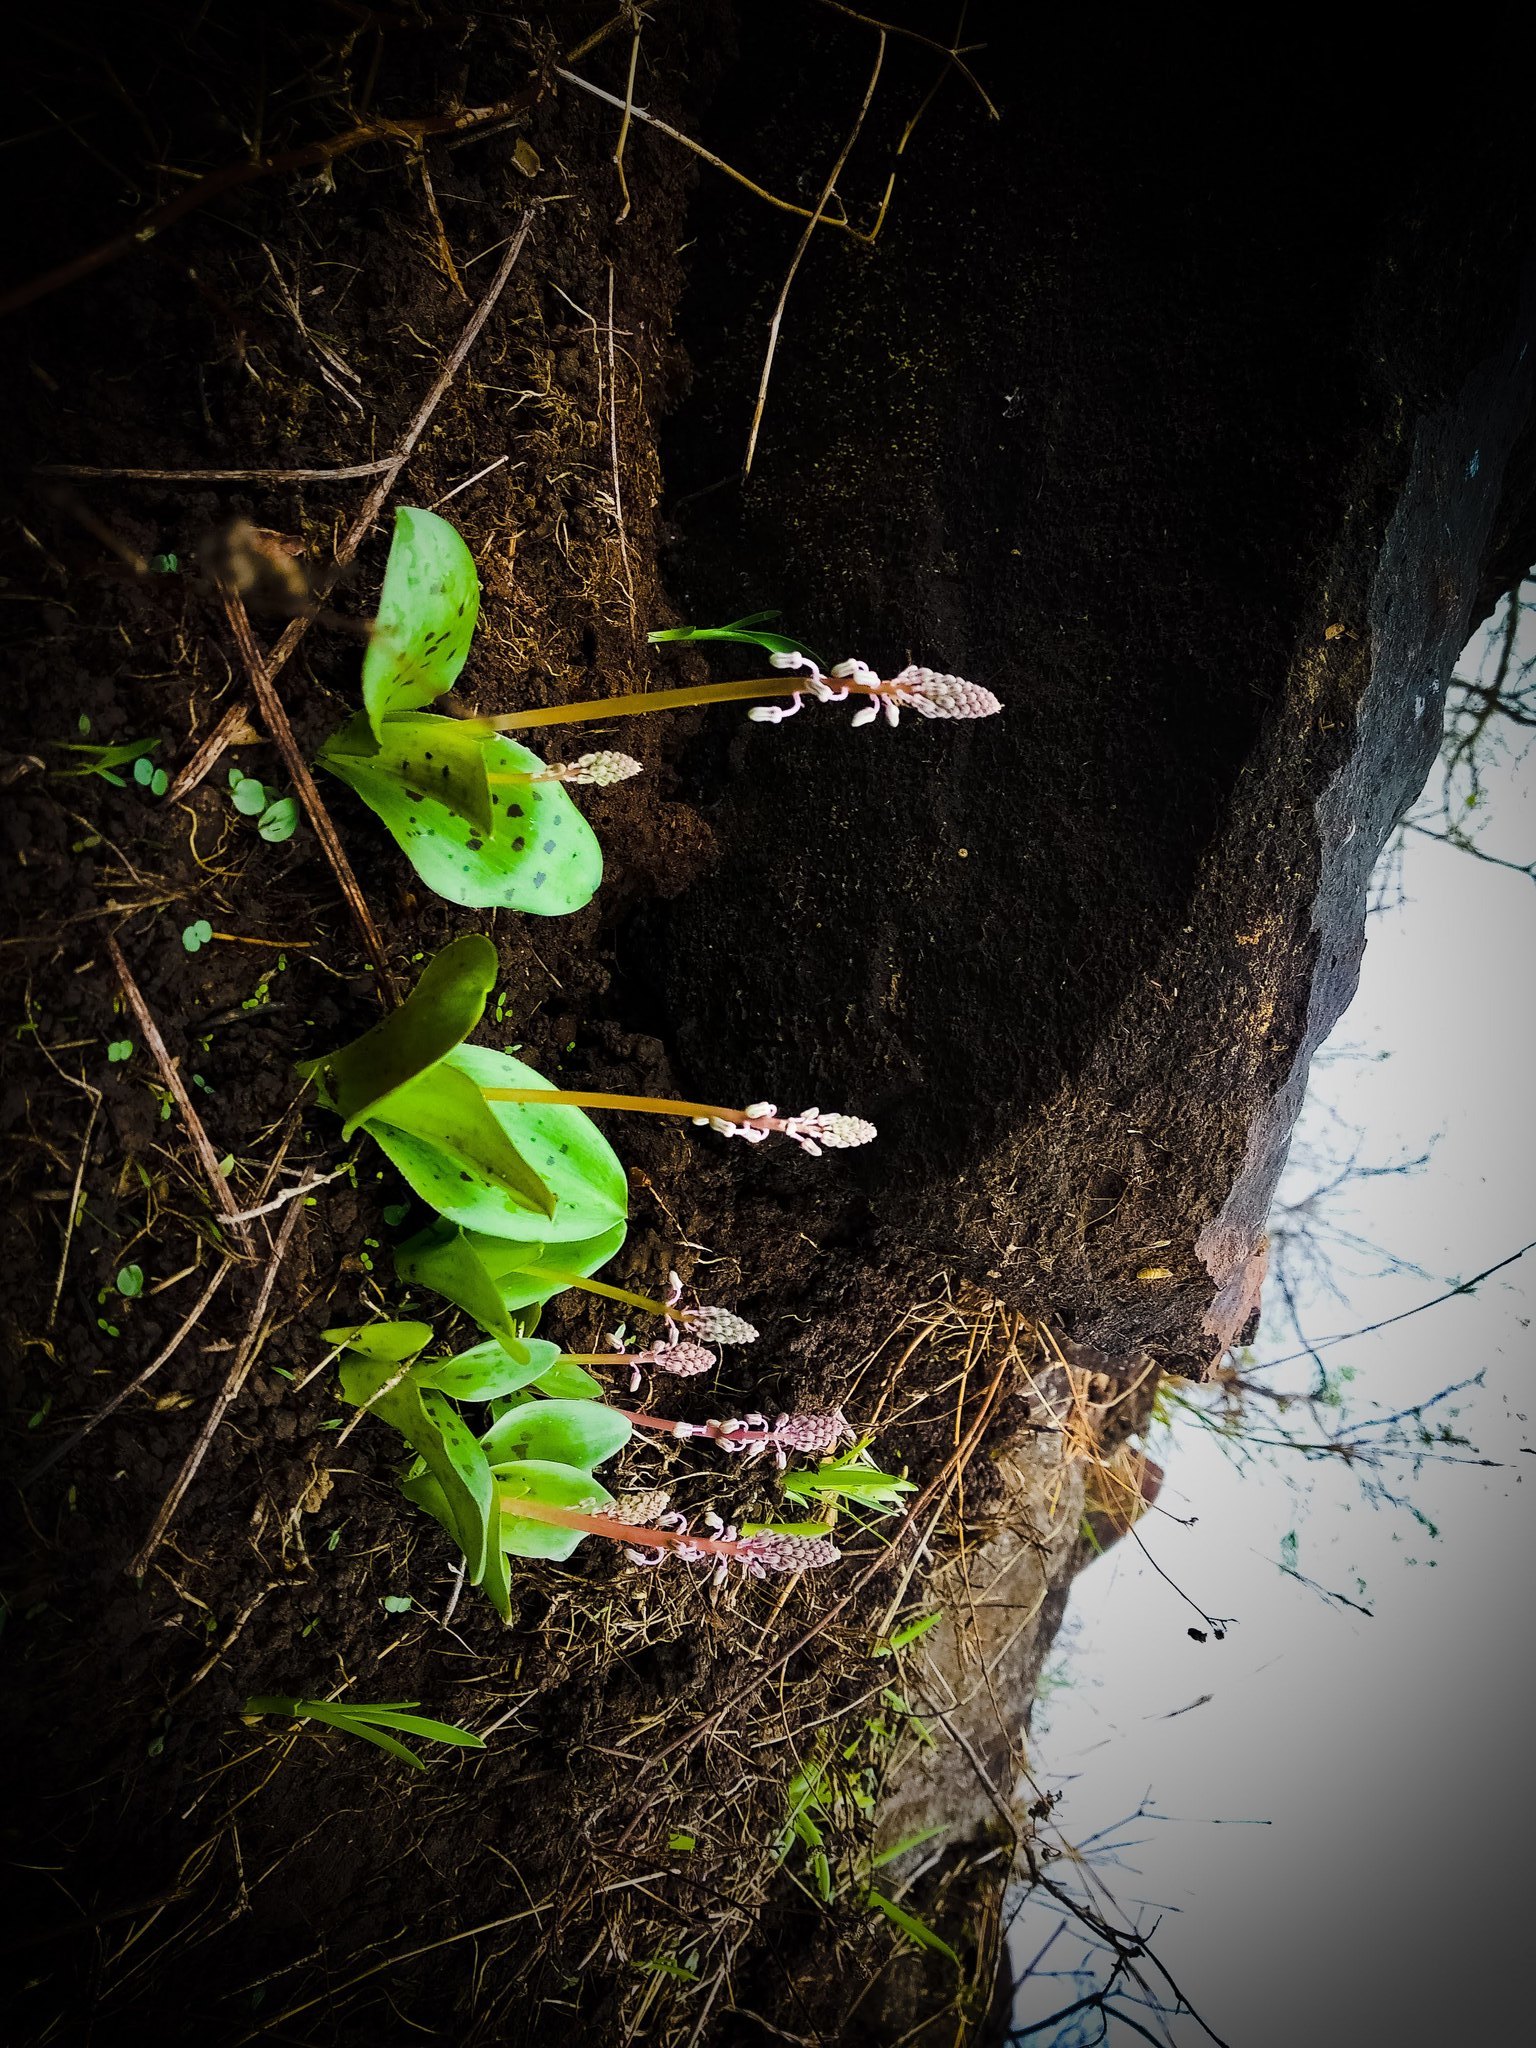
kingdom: Plantae
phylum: Tracheophyta
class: Liliopsida
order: Asparagales
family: Asparagaceae
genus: Ledebouria
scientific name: Ledebouria revoluta
